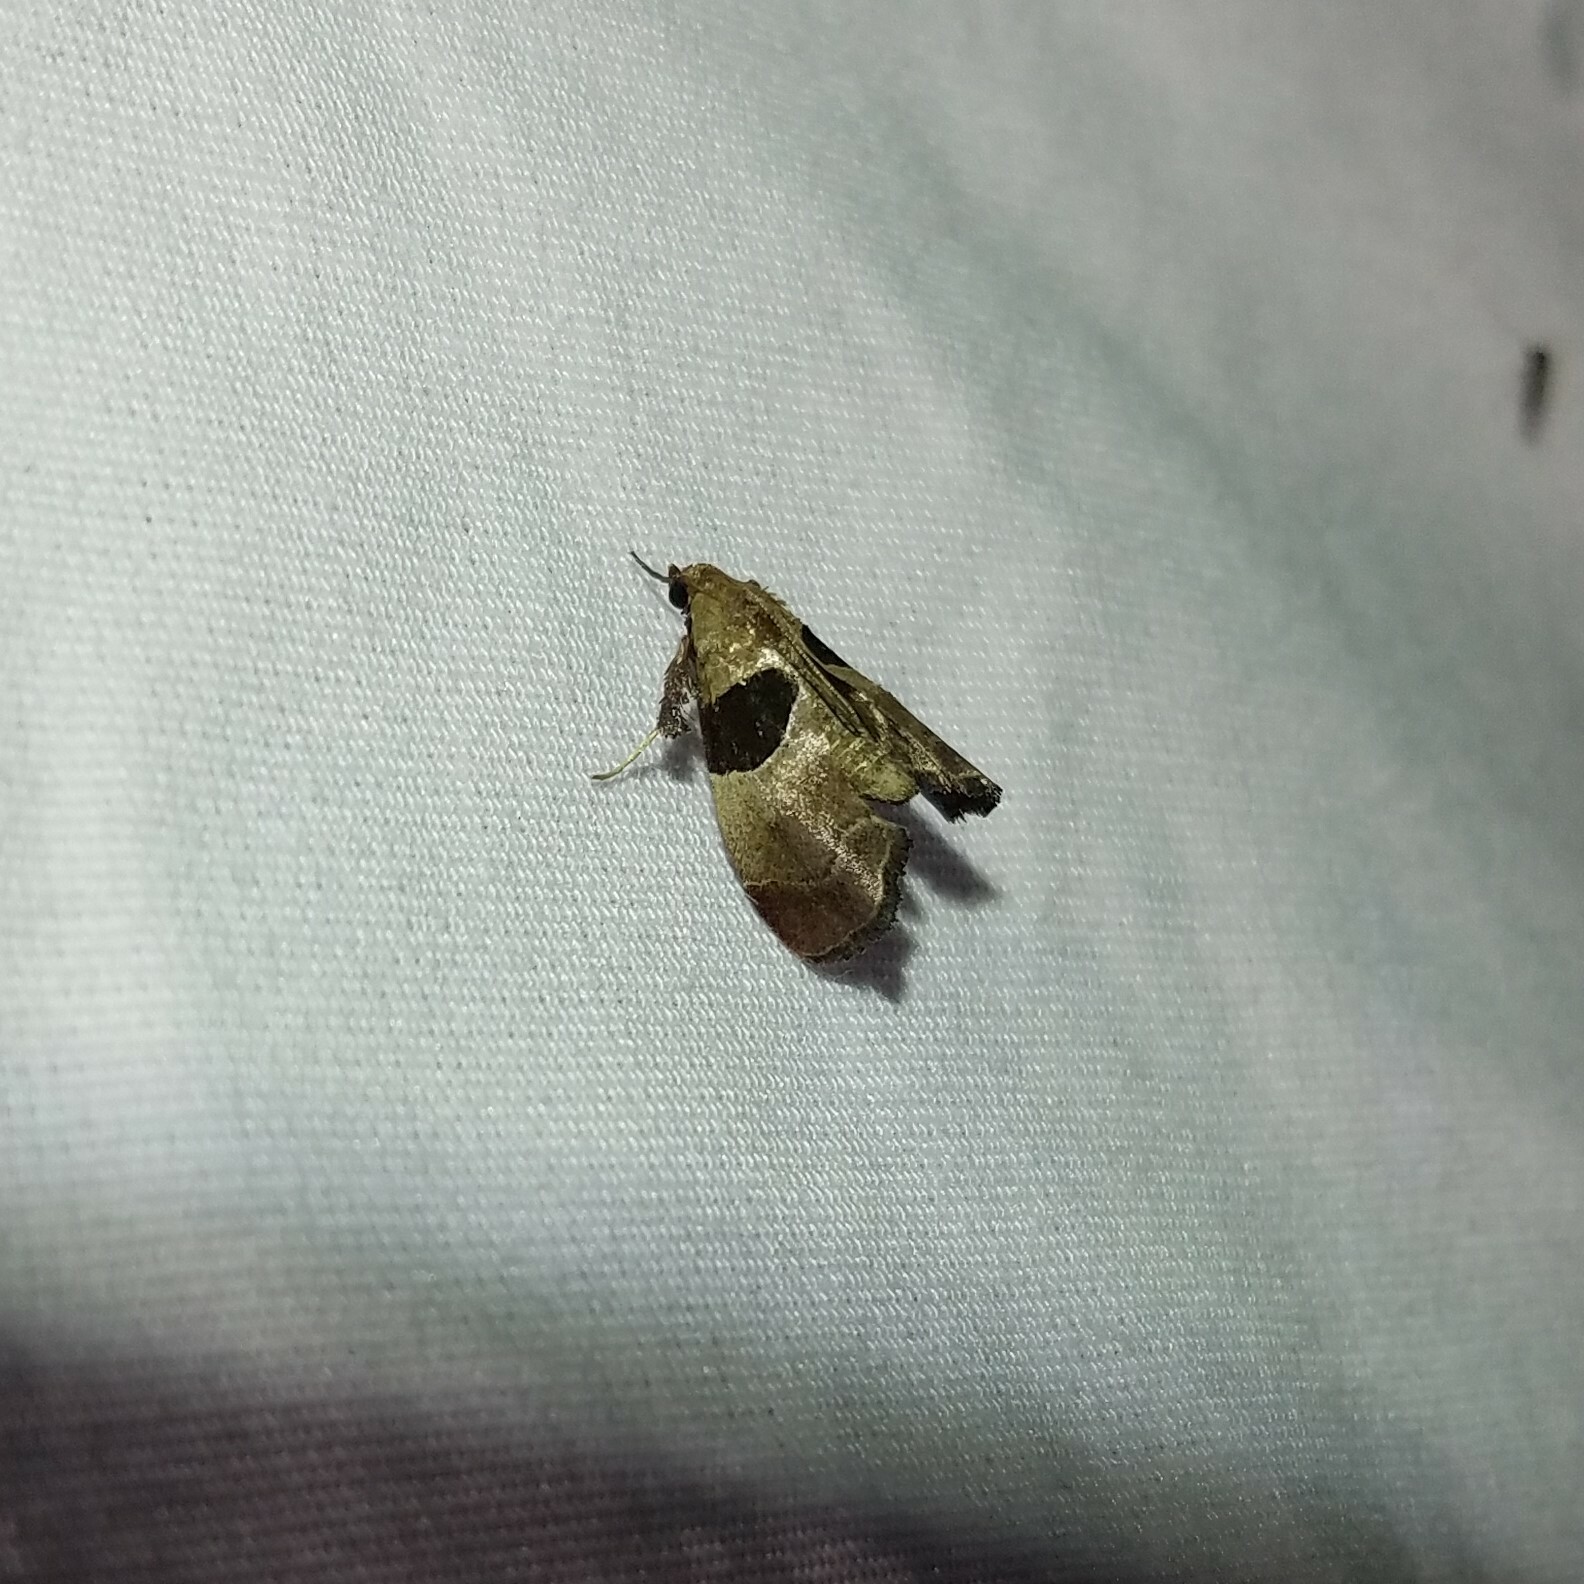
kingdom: Animalia
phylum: Arthropoda
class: Insecta
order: Lepidoptera
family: Pyralidae
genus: Tosale
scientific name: Tosale oviplagalis
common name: Dimorphic tosale moth
